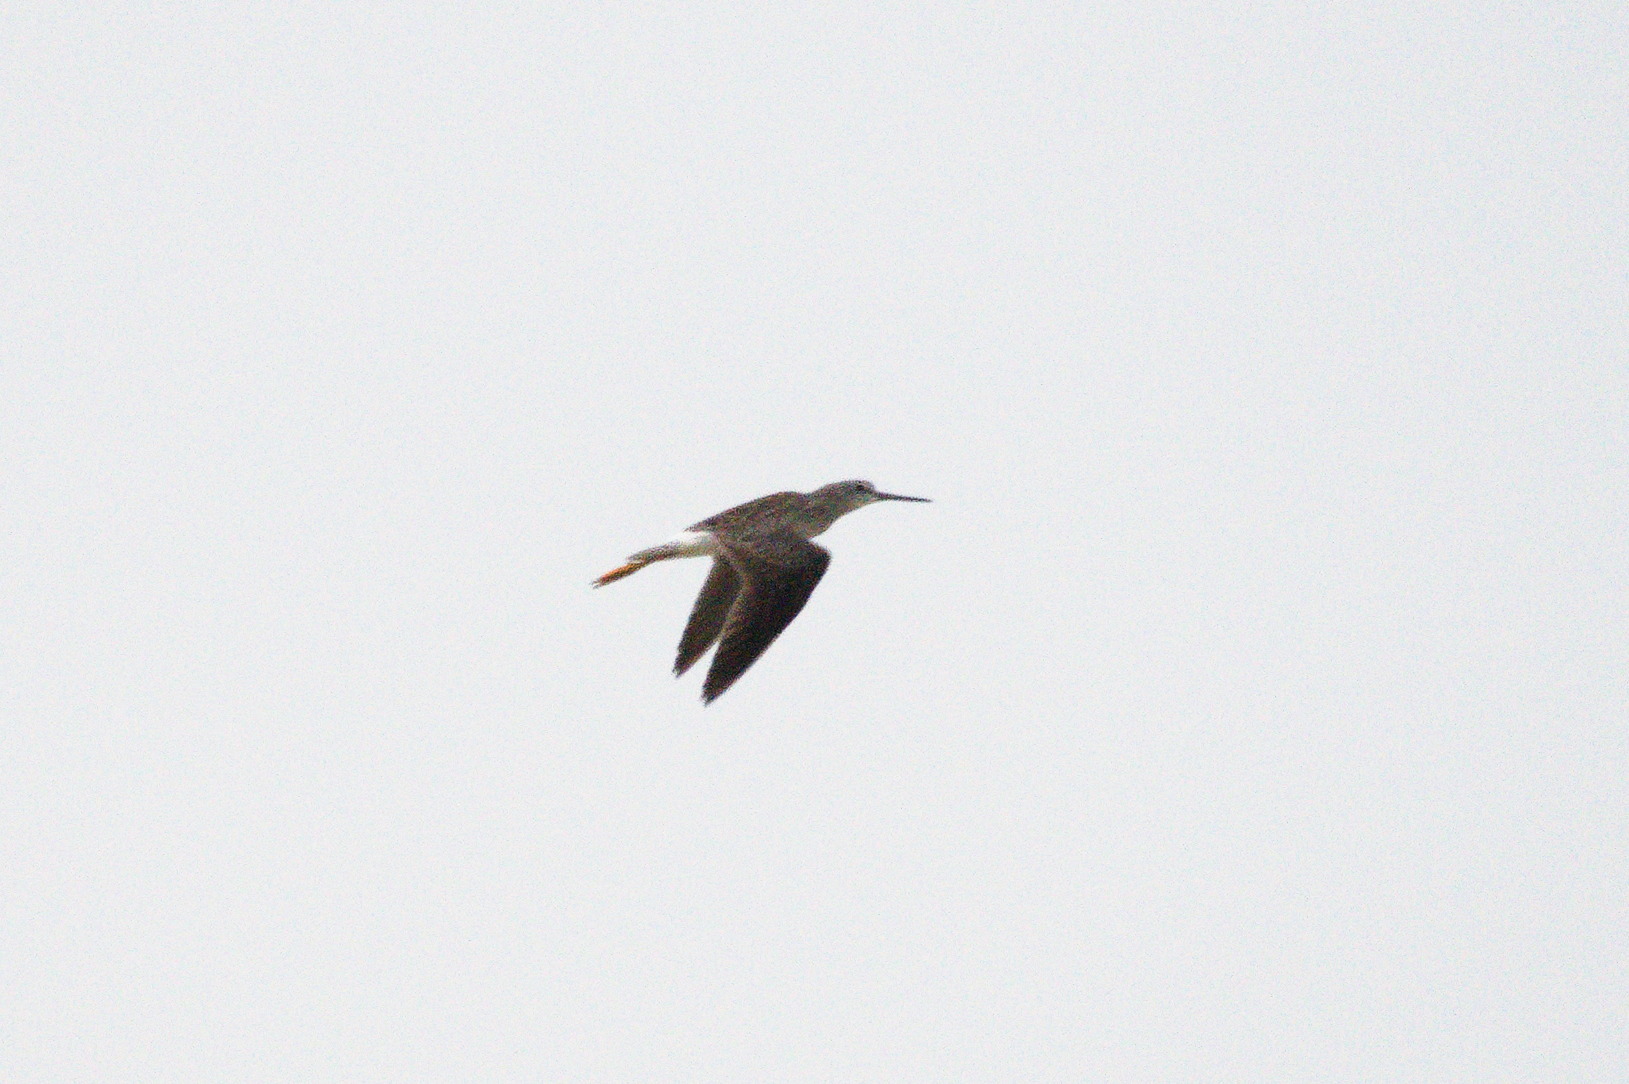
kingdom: Animalia
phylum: Chordata
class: Aves
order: Charadriiformes
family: Scolopacidae
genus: Tringa
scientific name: Tringa melanoleuca
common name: Greater yellowlegs
